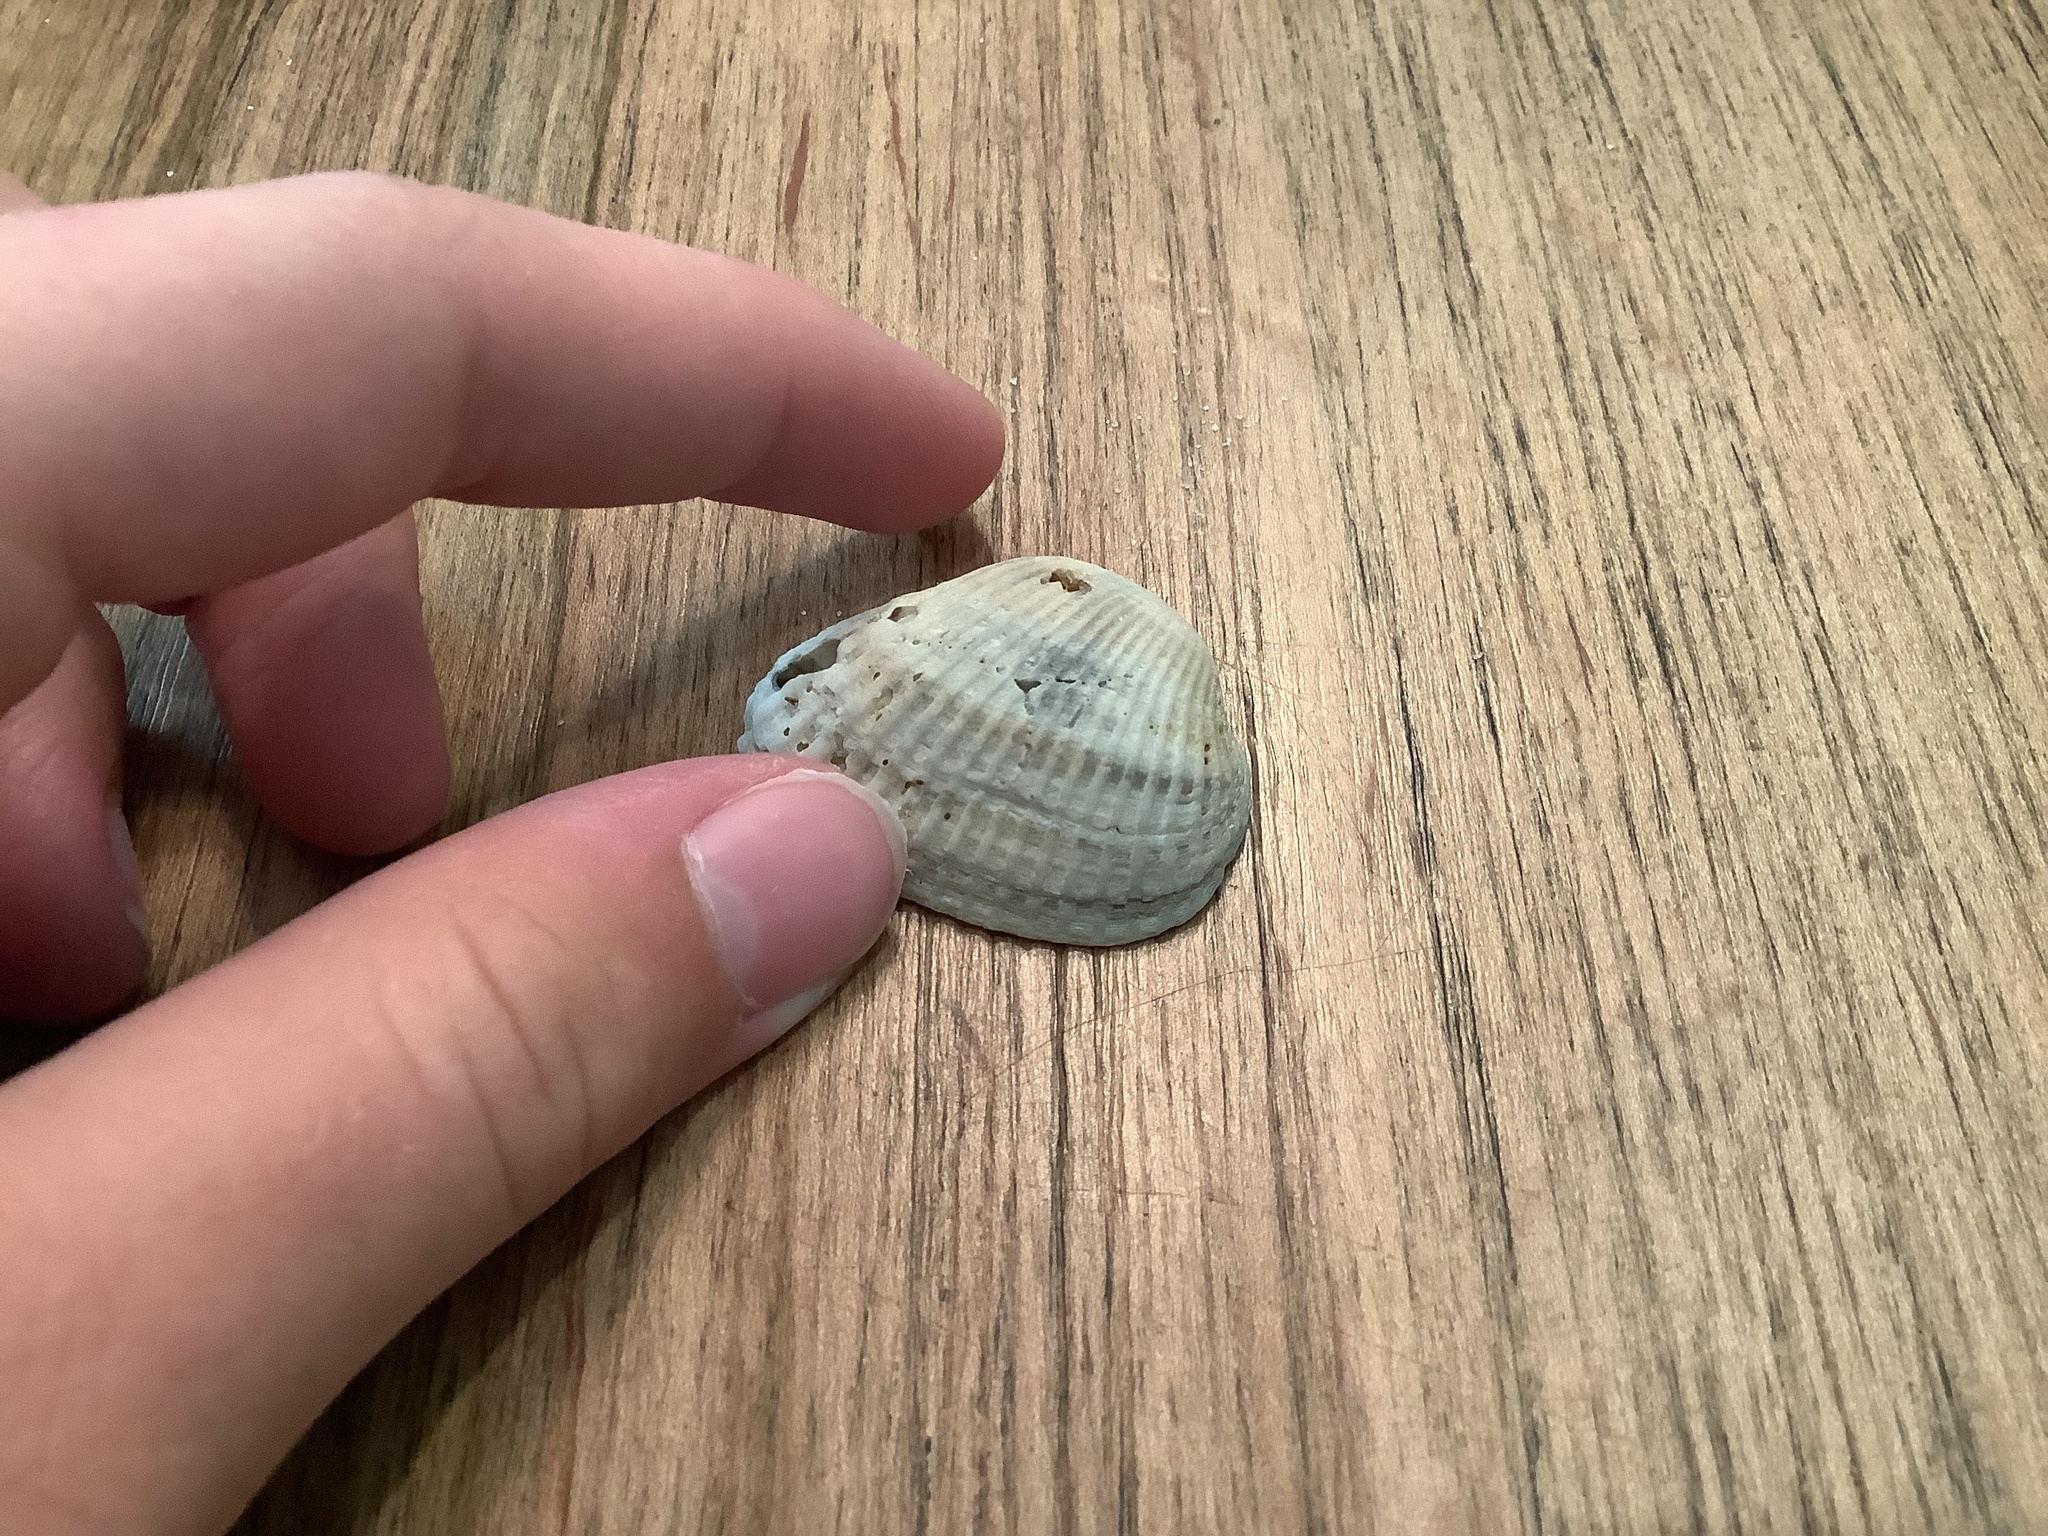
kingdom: Animalia
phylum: Mollusca
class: Bivalvia
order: Arcida
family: Arcidae
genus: Anadara
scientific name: Anadara notabilis
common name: Eared ark
